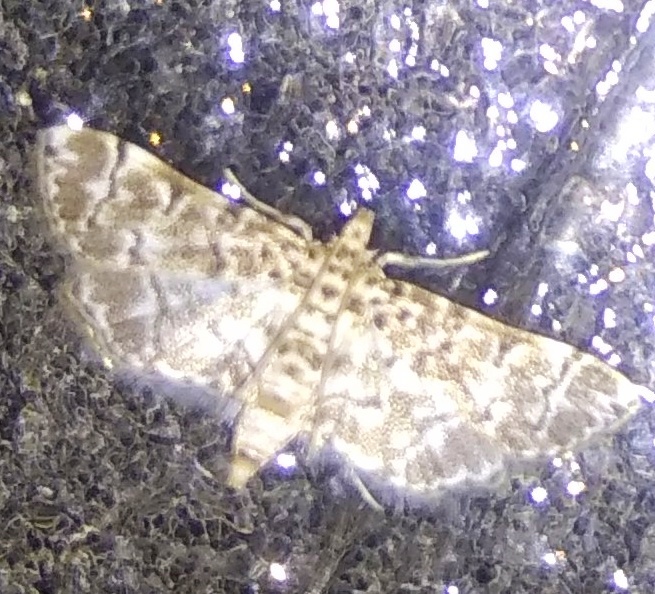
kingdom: Animalia
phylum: Arthropoda
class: Insecta
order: Lepidoptera
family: Crambidae
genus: Metoeca
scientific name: Metoeca foedalis
